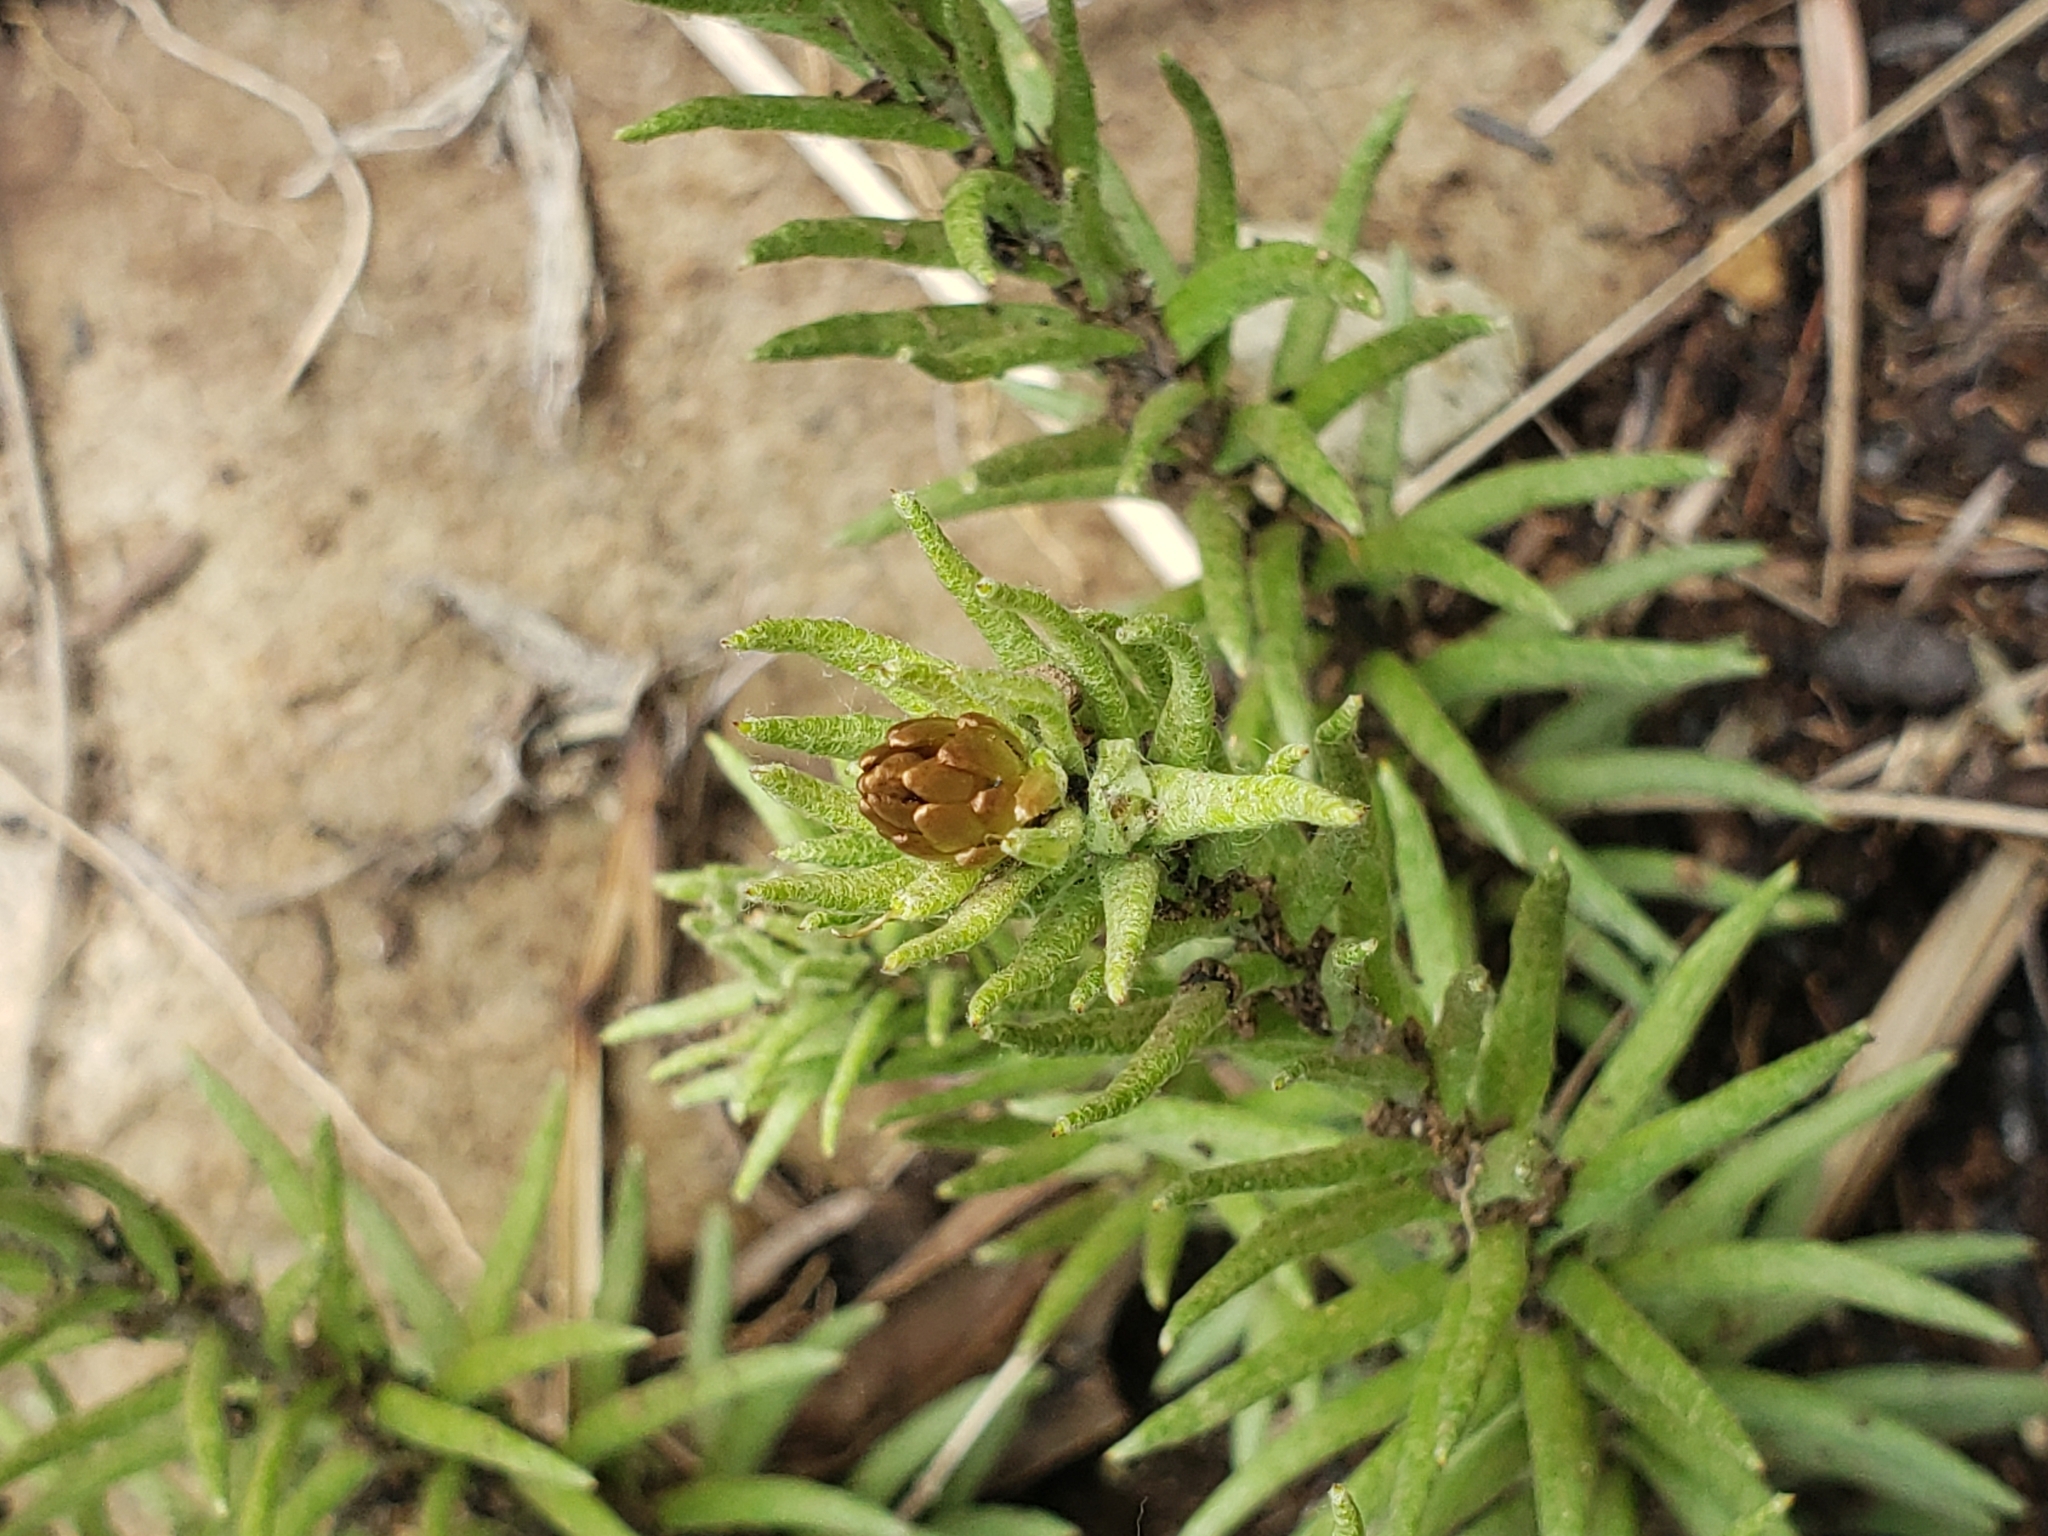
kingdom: Plantae
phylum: Tracheophyta
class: Magnoliopsida
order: Asterales
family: Asteraceae
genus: Helichrysum
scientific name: Helichrysum herbaceum
